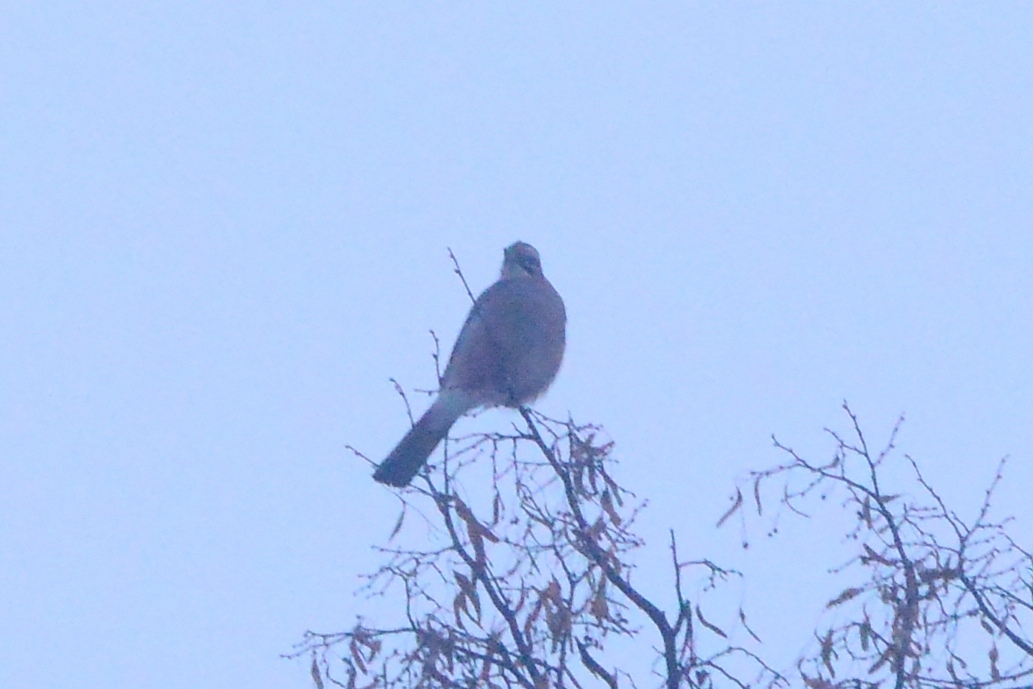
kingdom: Animalia
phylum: Chordata
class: Aves
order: Passeriformes
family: Corvidae
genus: Garrulus
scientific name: Garrulus glandarius
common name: Eurasian jay
